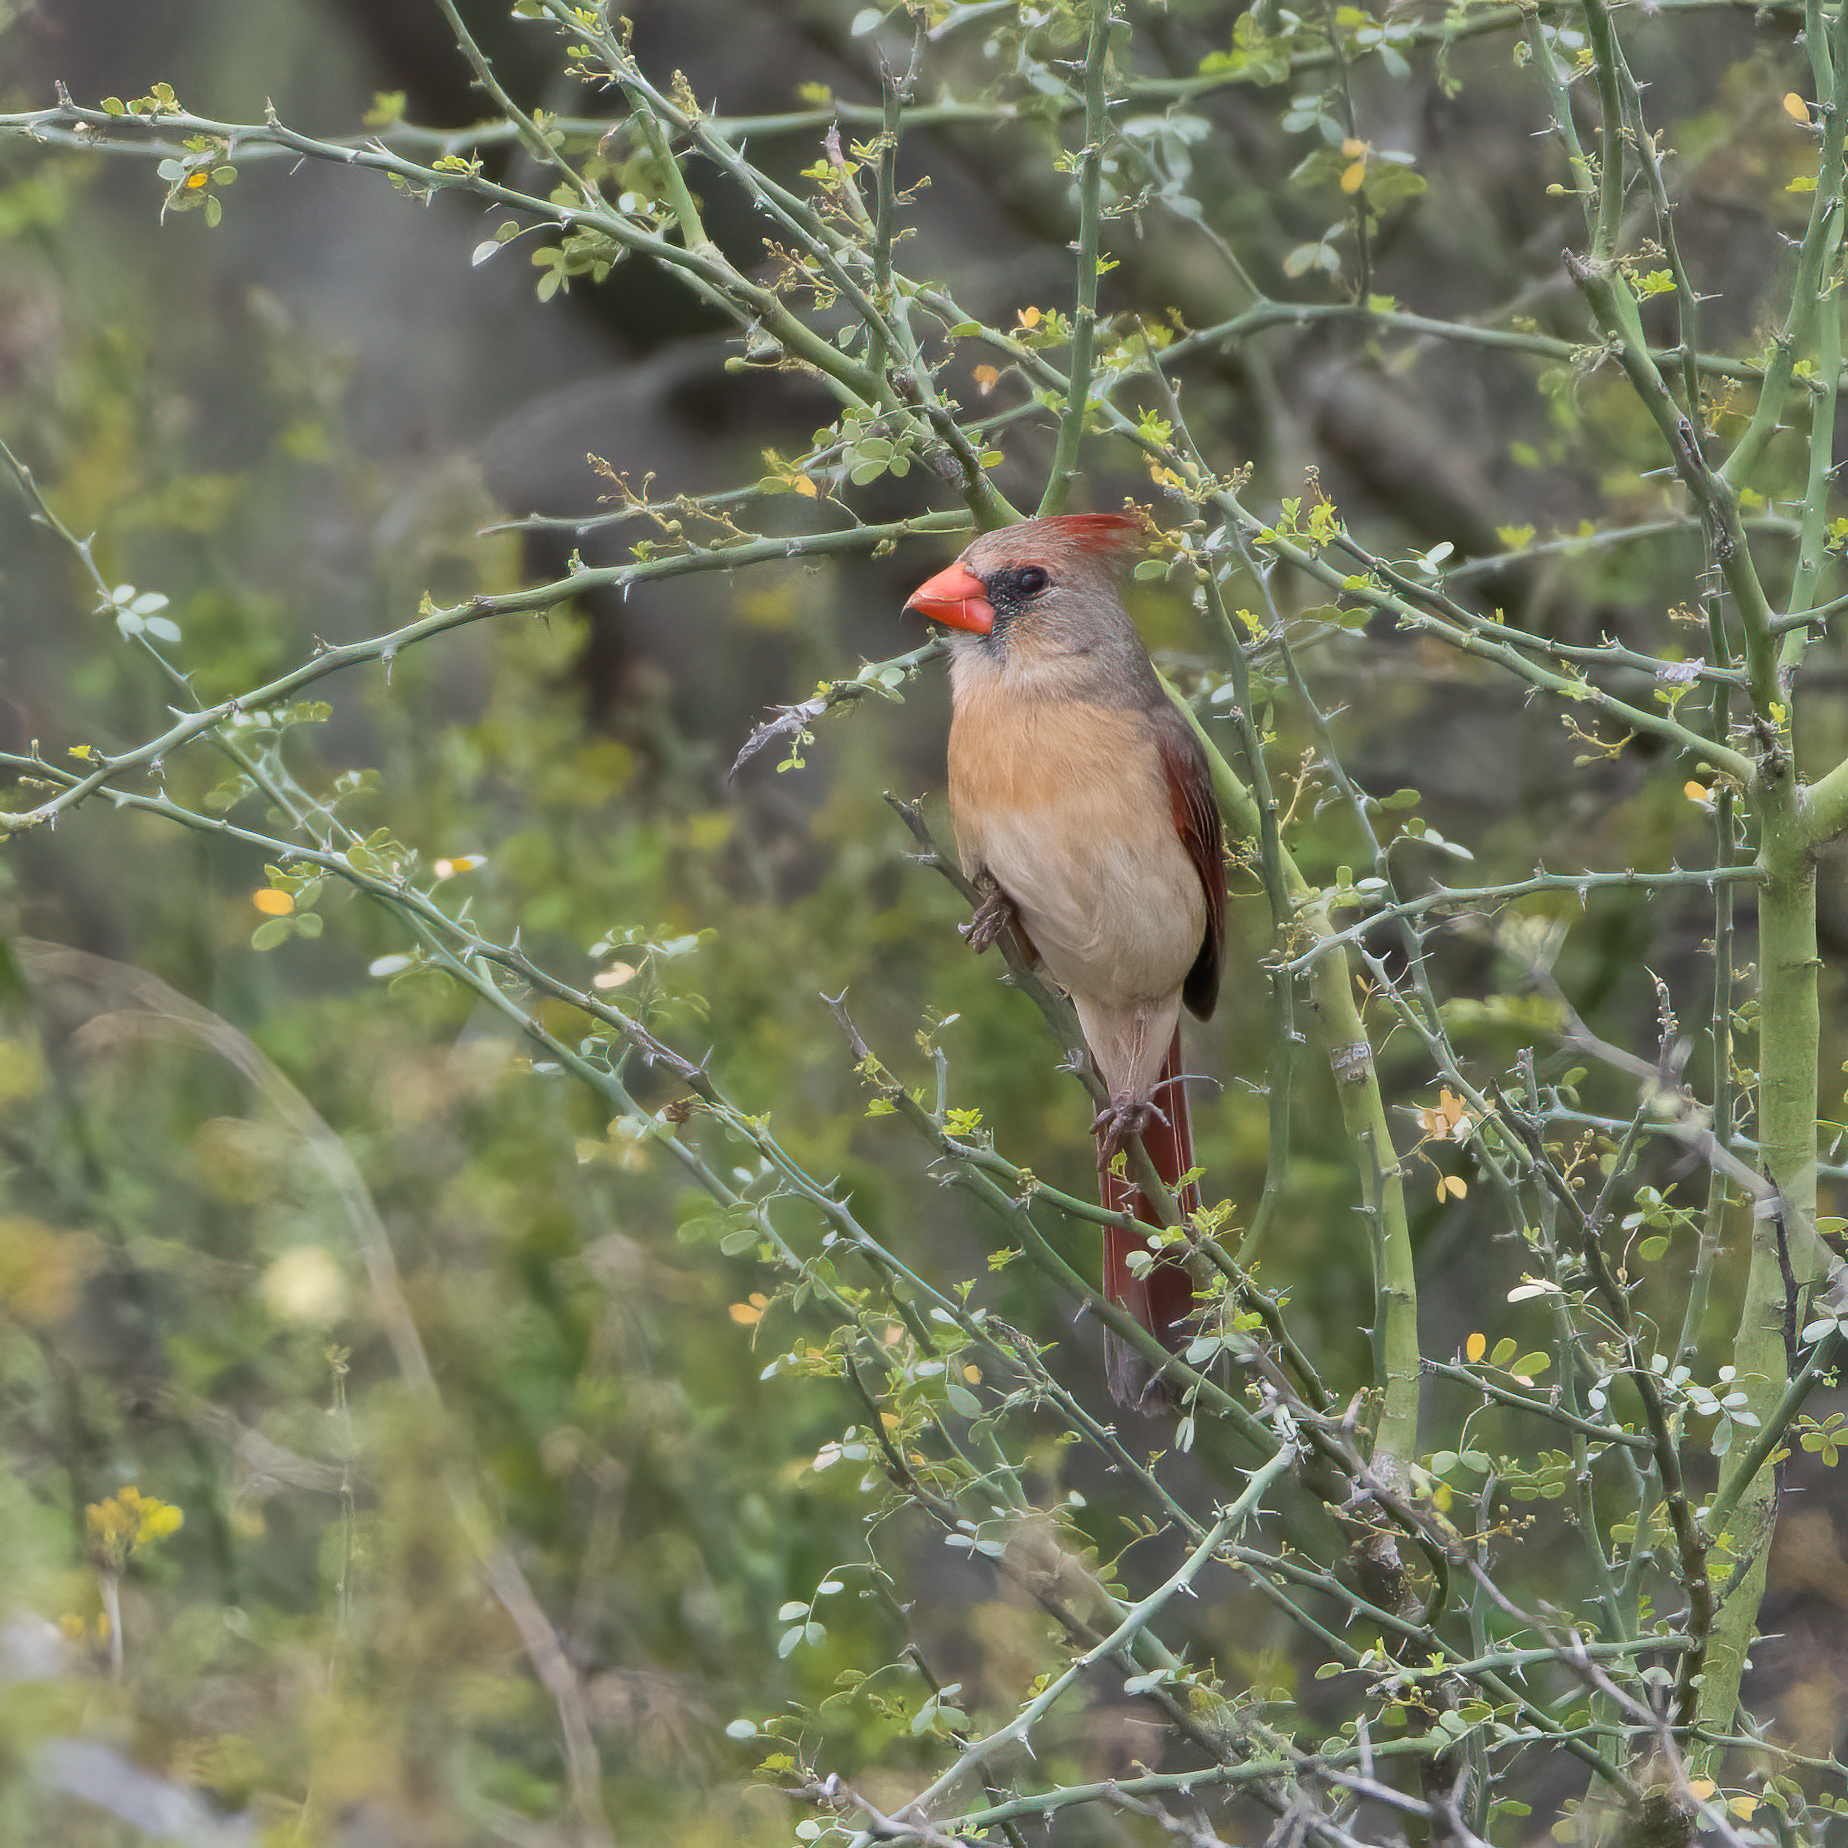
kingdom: Animalia
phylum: Chordata
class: Aves
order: Passeriformes
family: Cardinalidae
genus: Cardinalis
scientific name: Cardinalis cardinalis
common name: Northern cardinal
